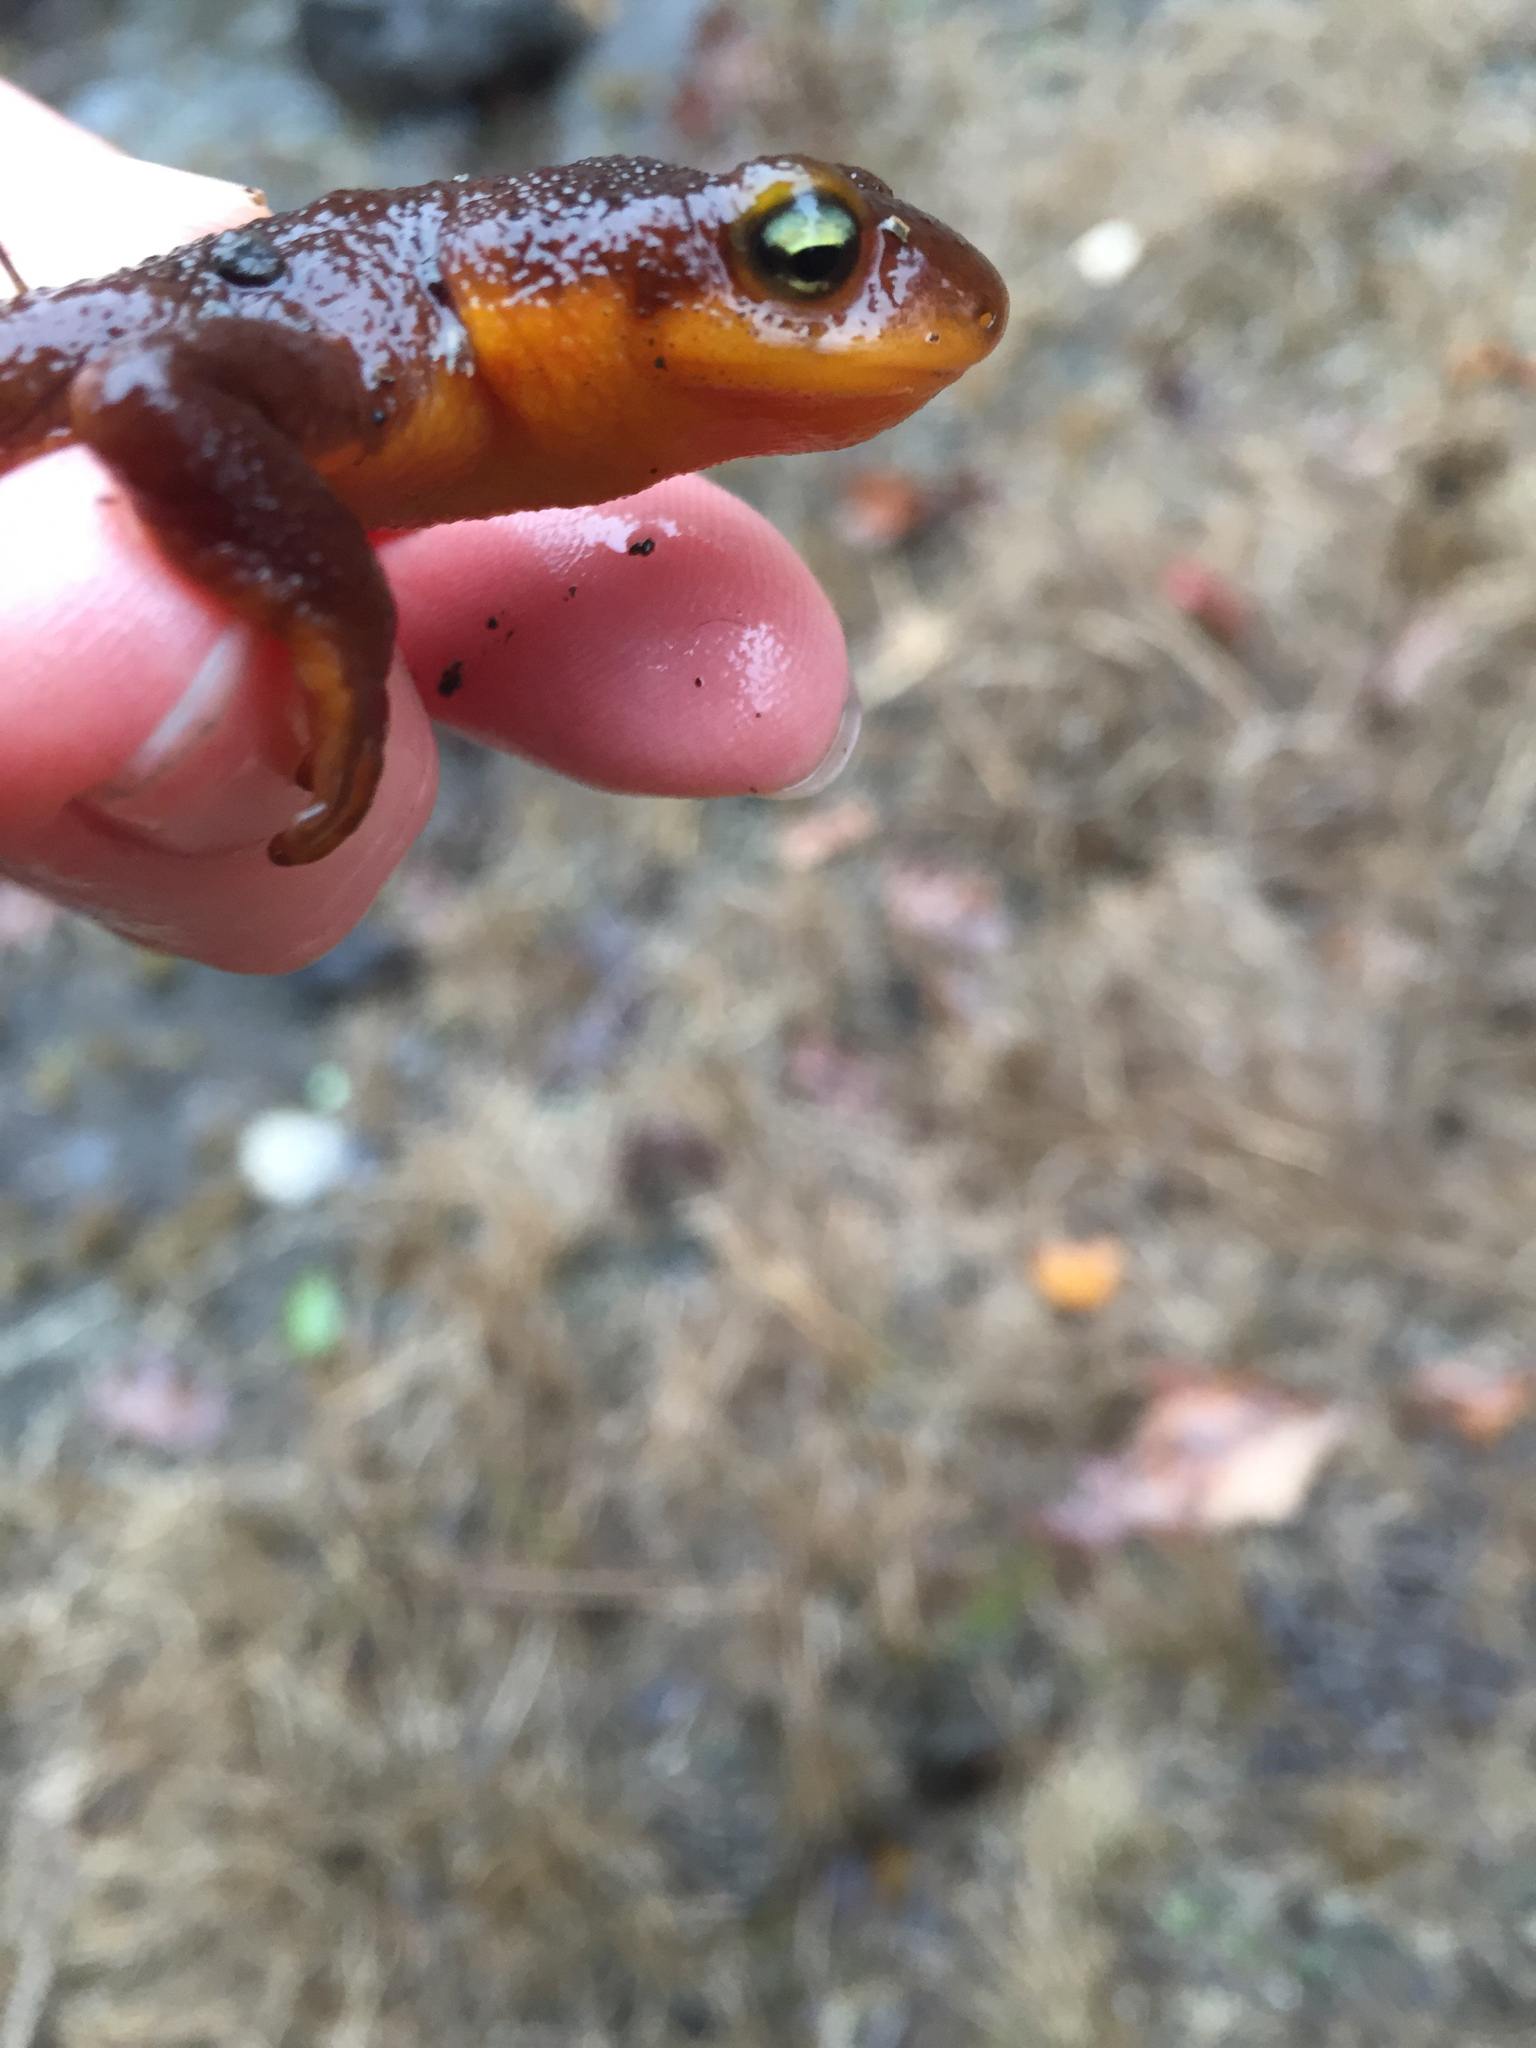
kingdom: Animalia
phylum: Chordata
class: Amphibia
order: Caudata
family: Salamandridae
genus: Taricha
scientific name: Taricha torosa
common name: California newt
